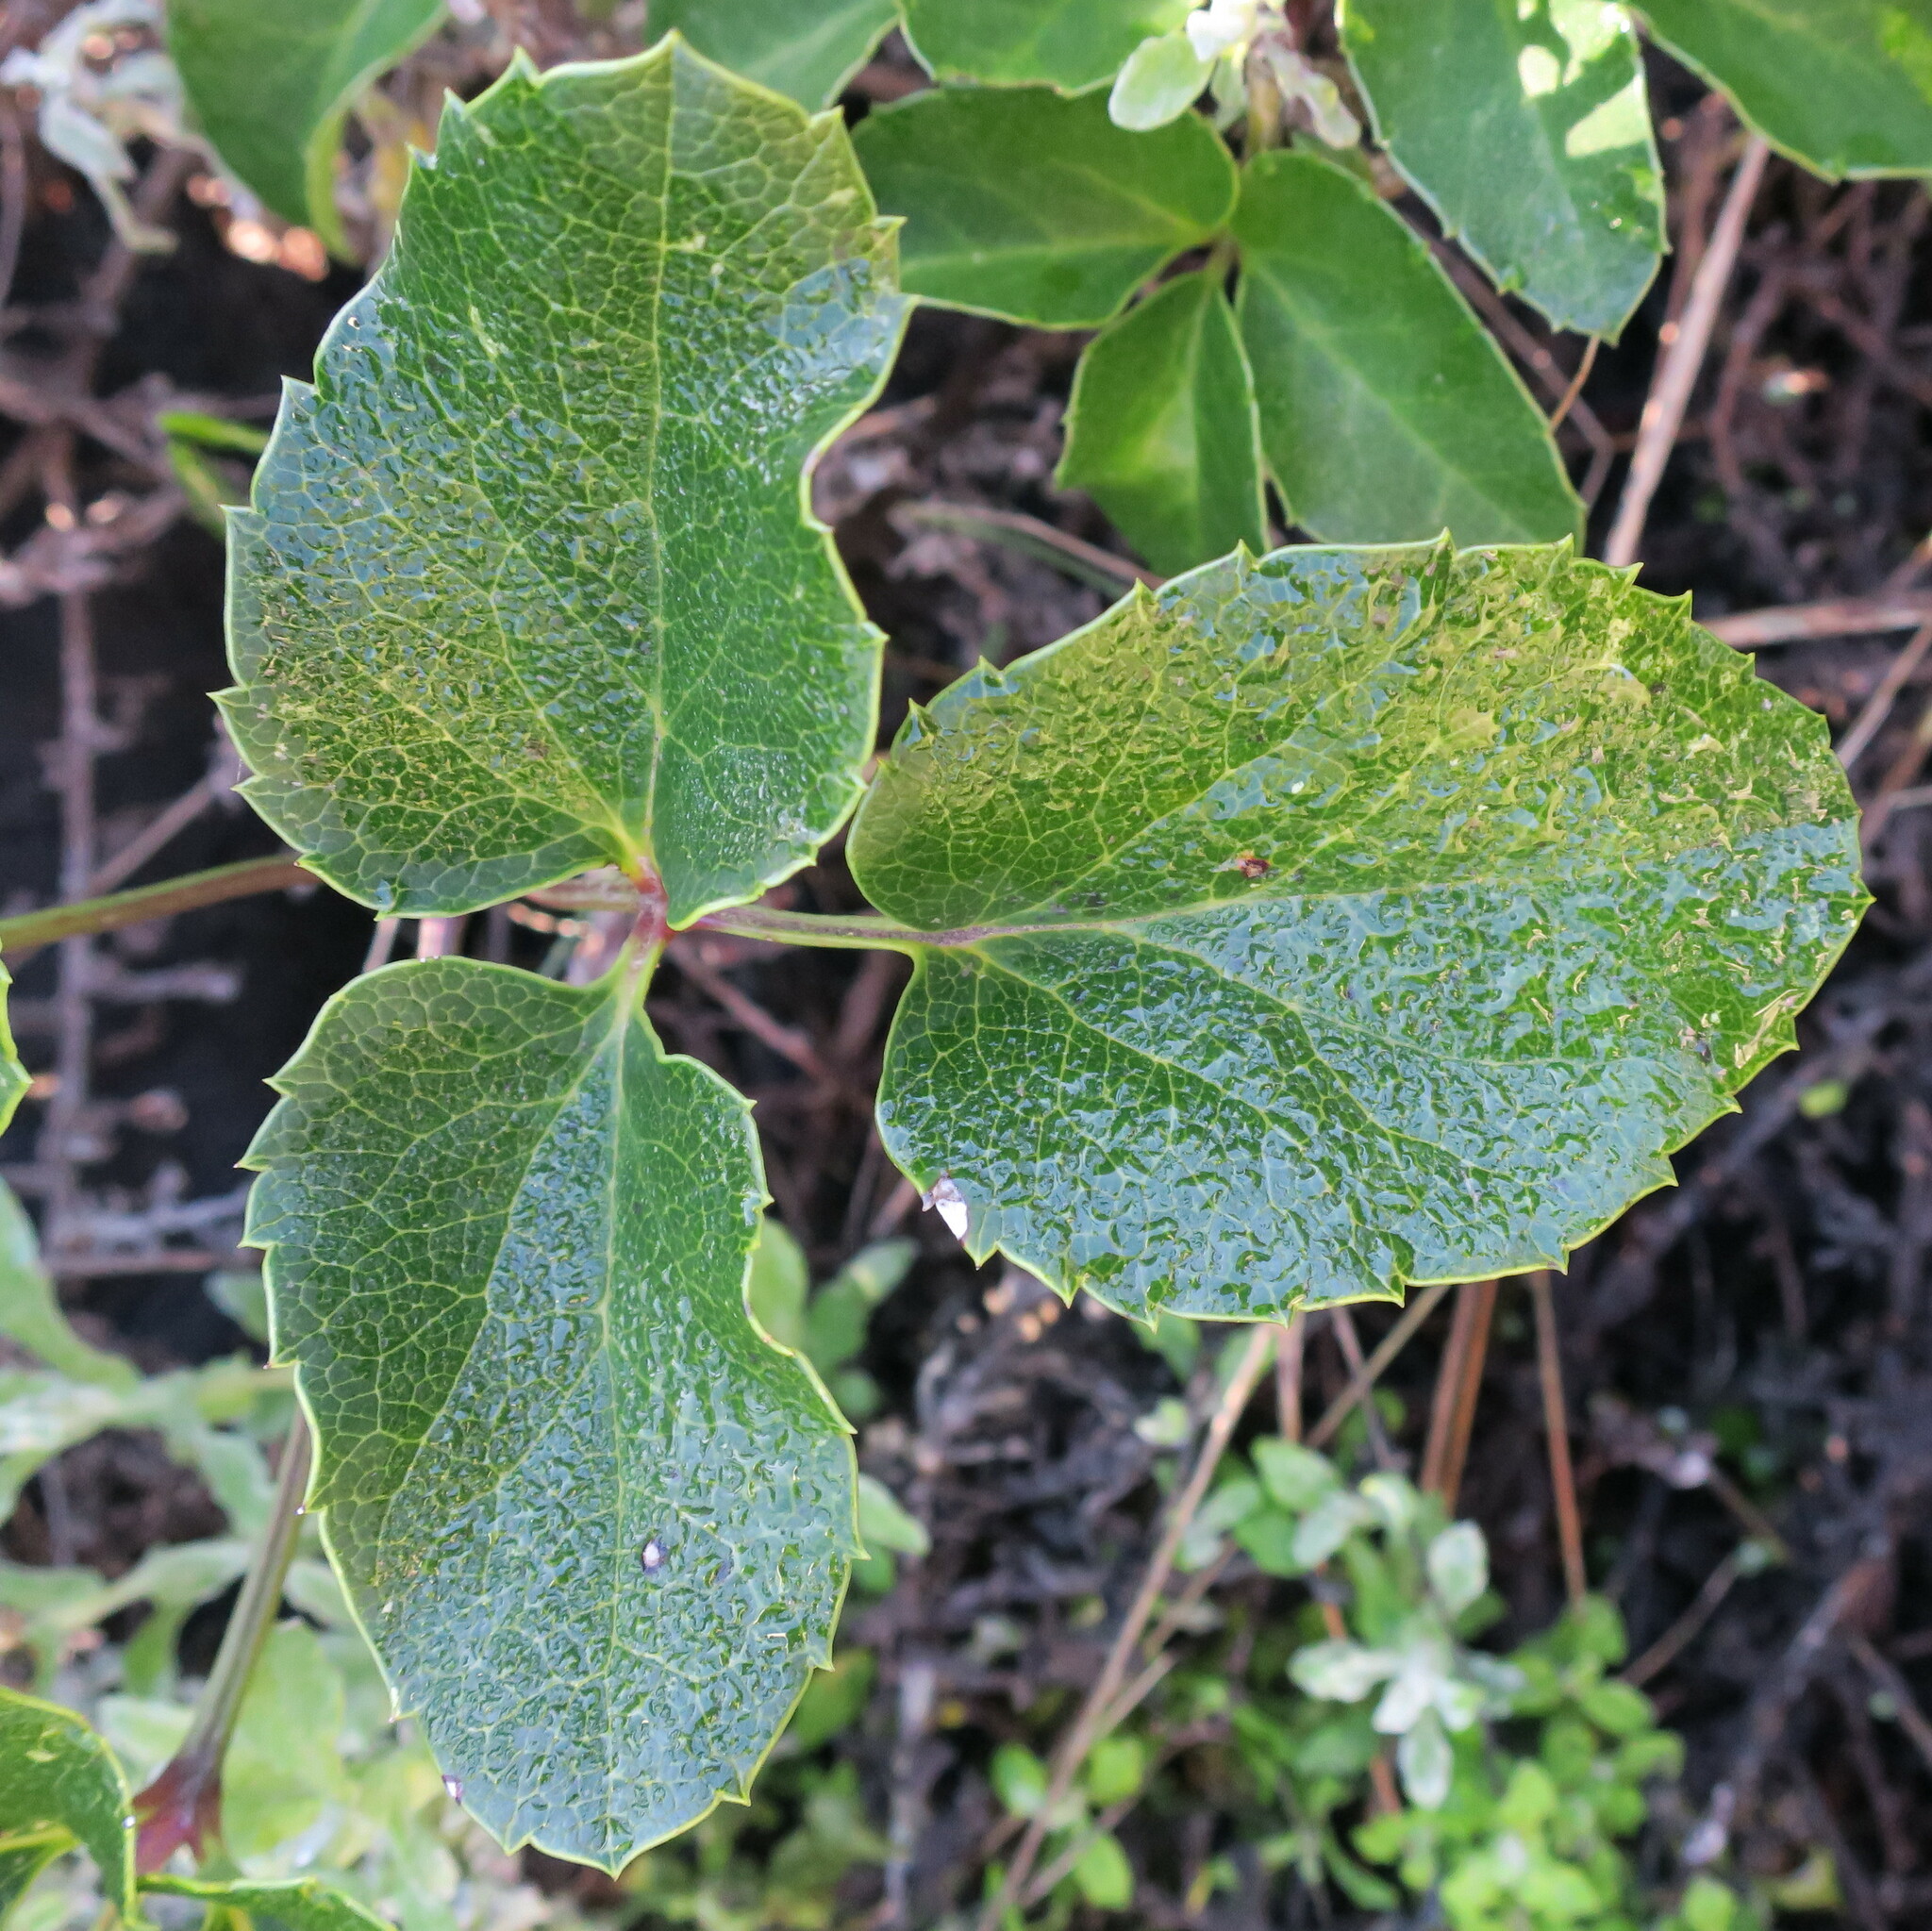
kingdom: Plantae
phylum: Tracheophyta
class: Magnoliopsida
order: Ranunculales
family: Ranunculaceae
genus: Knowltonia
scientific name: Knowltonia vesicatoria
